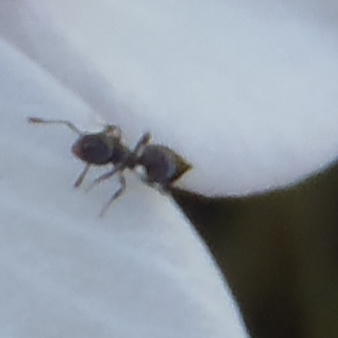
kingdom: Animalia
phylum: Arthropoda
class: Insecta
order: Hymenoptera
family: Formicidae
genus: Crematogaster
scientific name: Crematogaster peringueyi
